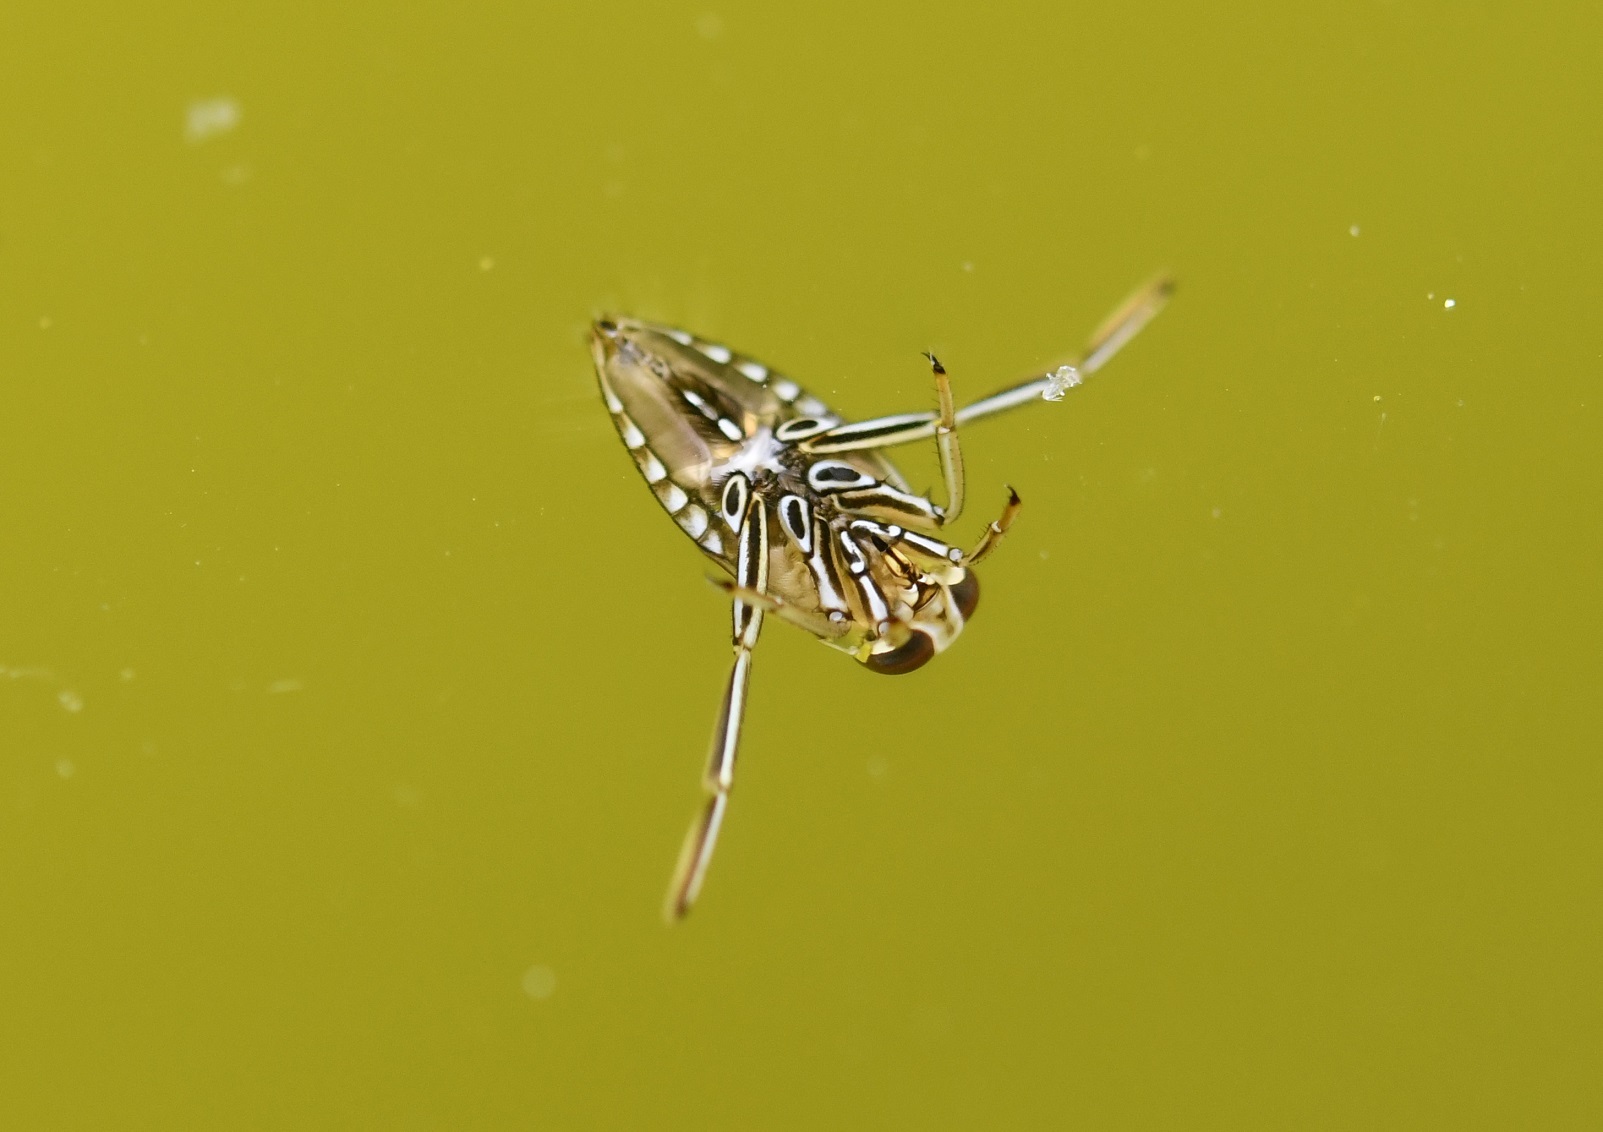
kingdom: Animalia
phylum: Arthropoda
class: Insecta
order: Hemiptera
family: Notonectidae
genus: Notonecta
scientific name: Notonecta
